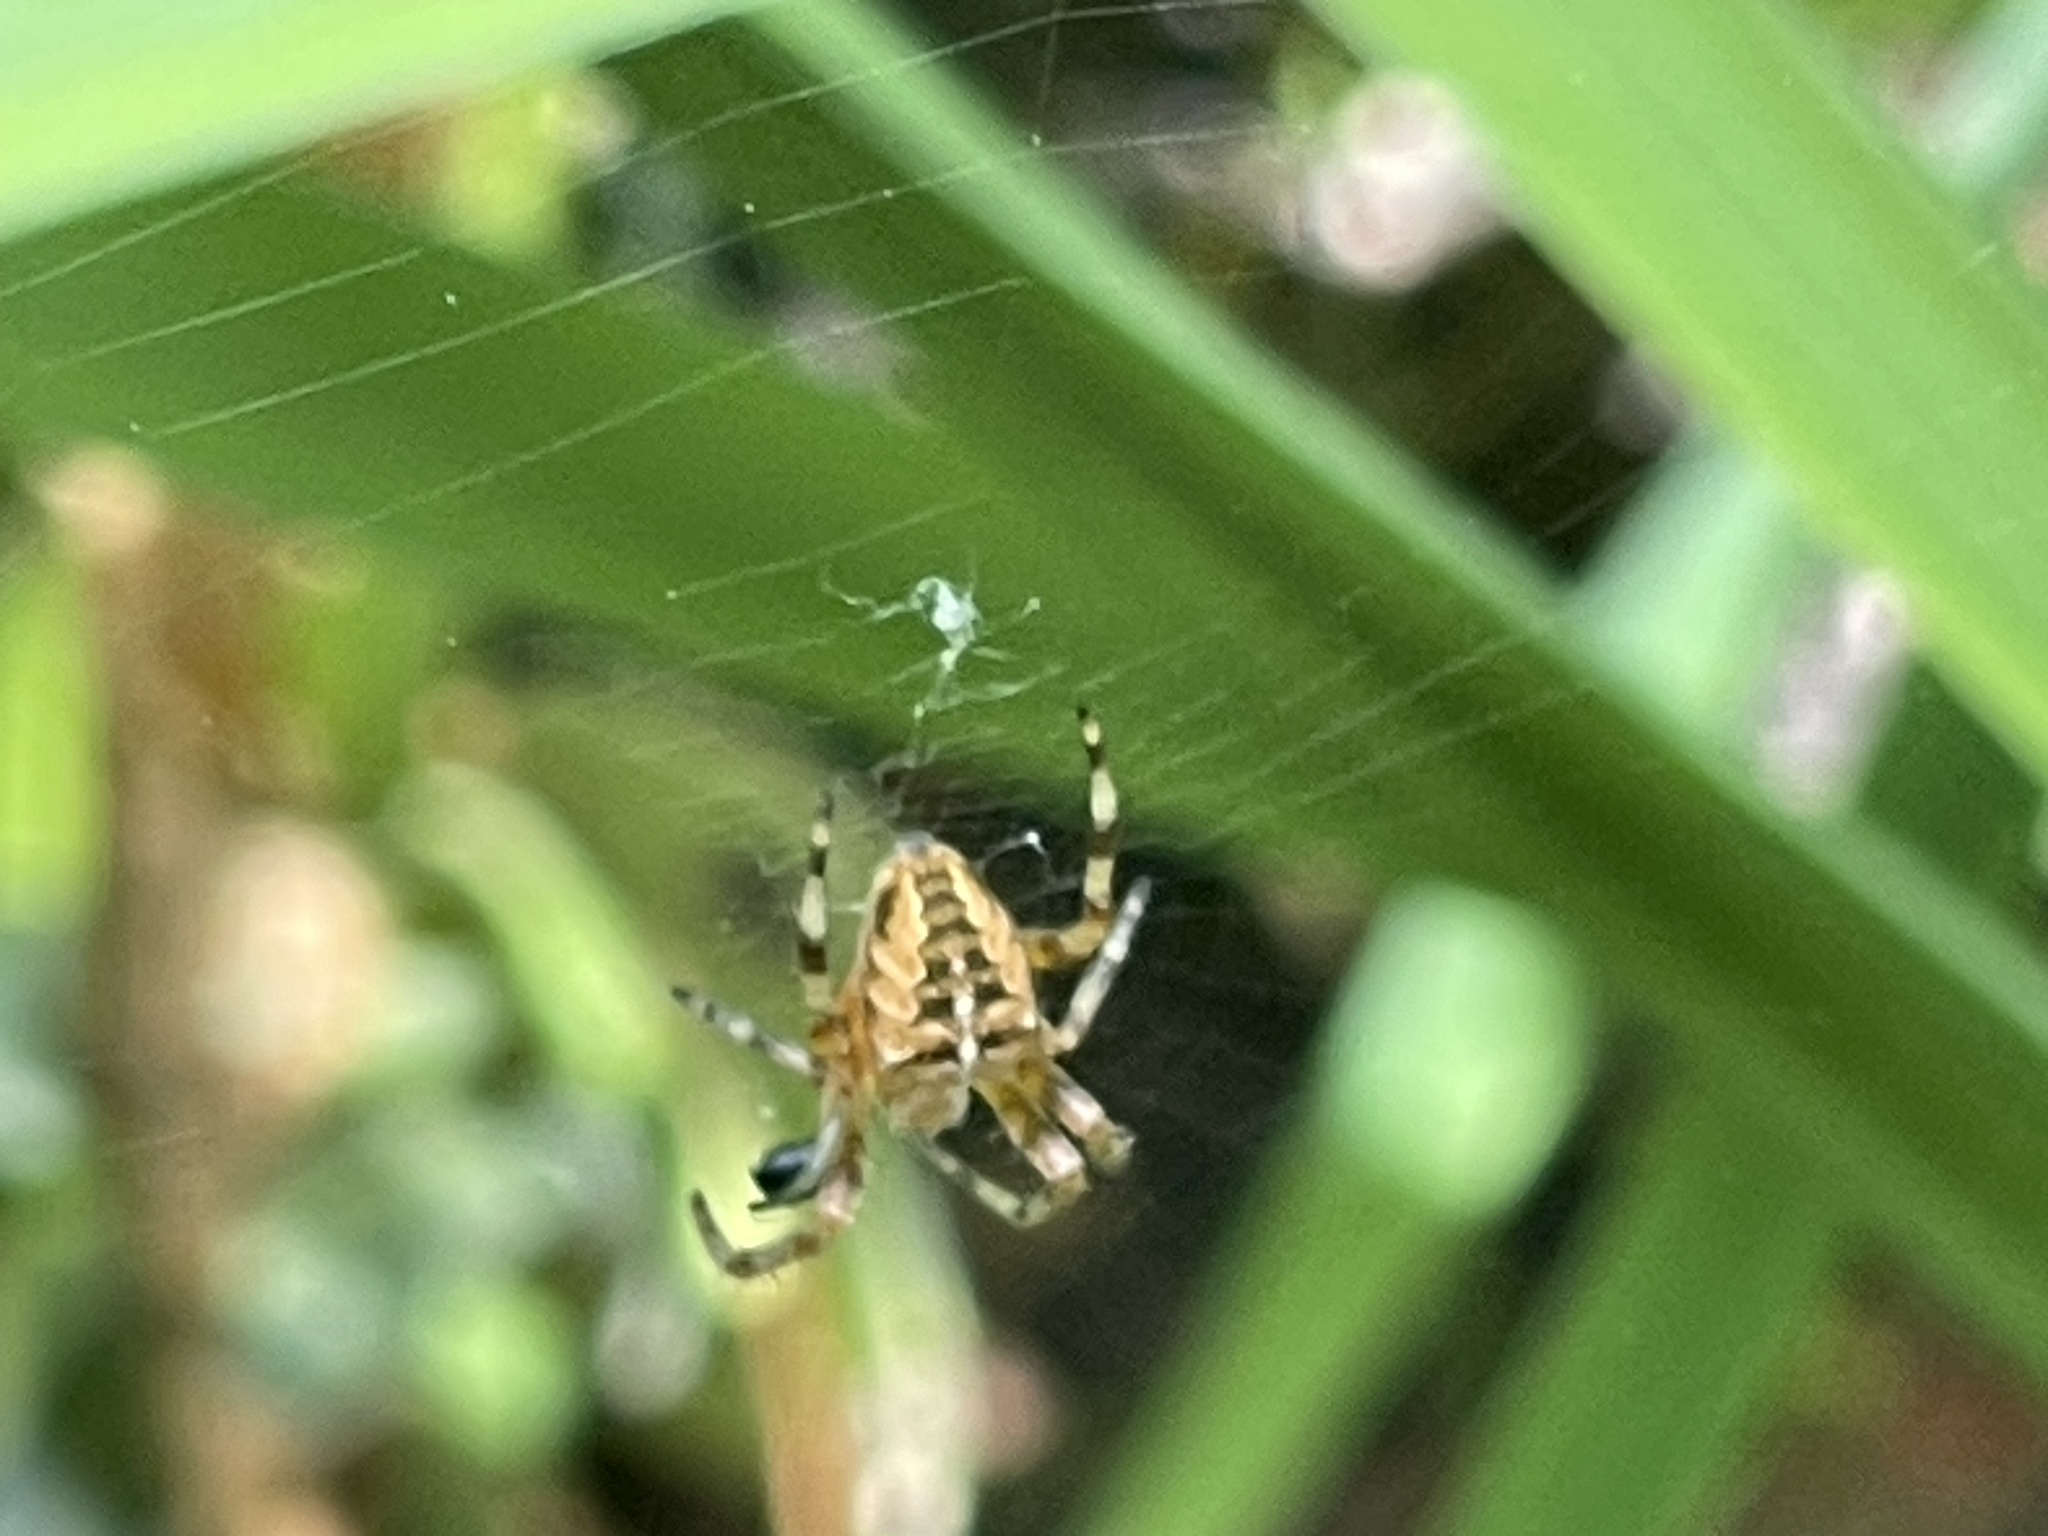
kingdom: Animalia
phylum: Arthropoda
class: Arachnida
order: Araneae
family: Araneidae
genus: Araneus
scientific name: Araneus diadematus
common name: Cross orbweaver
